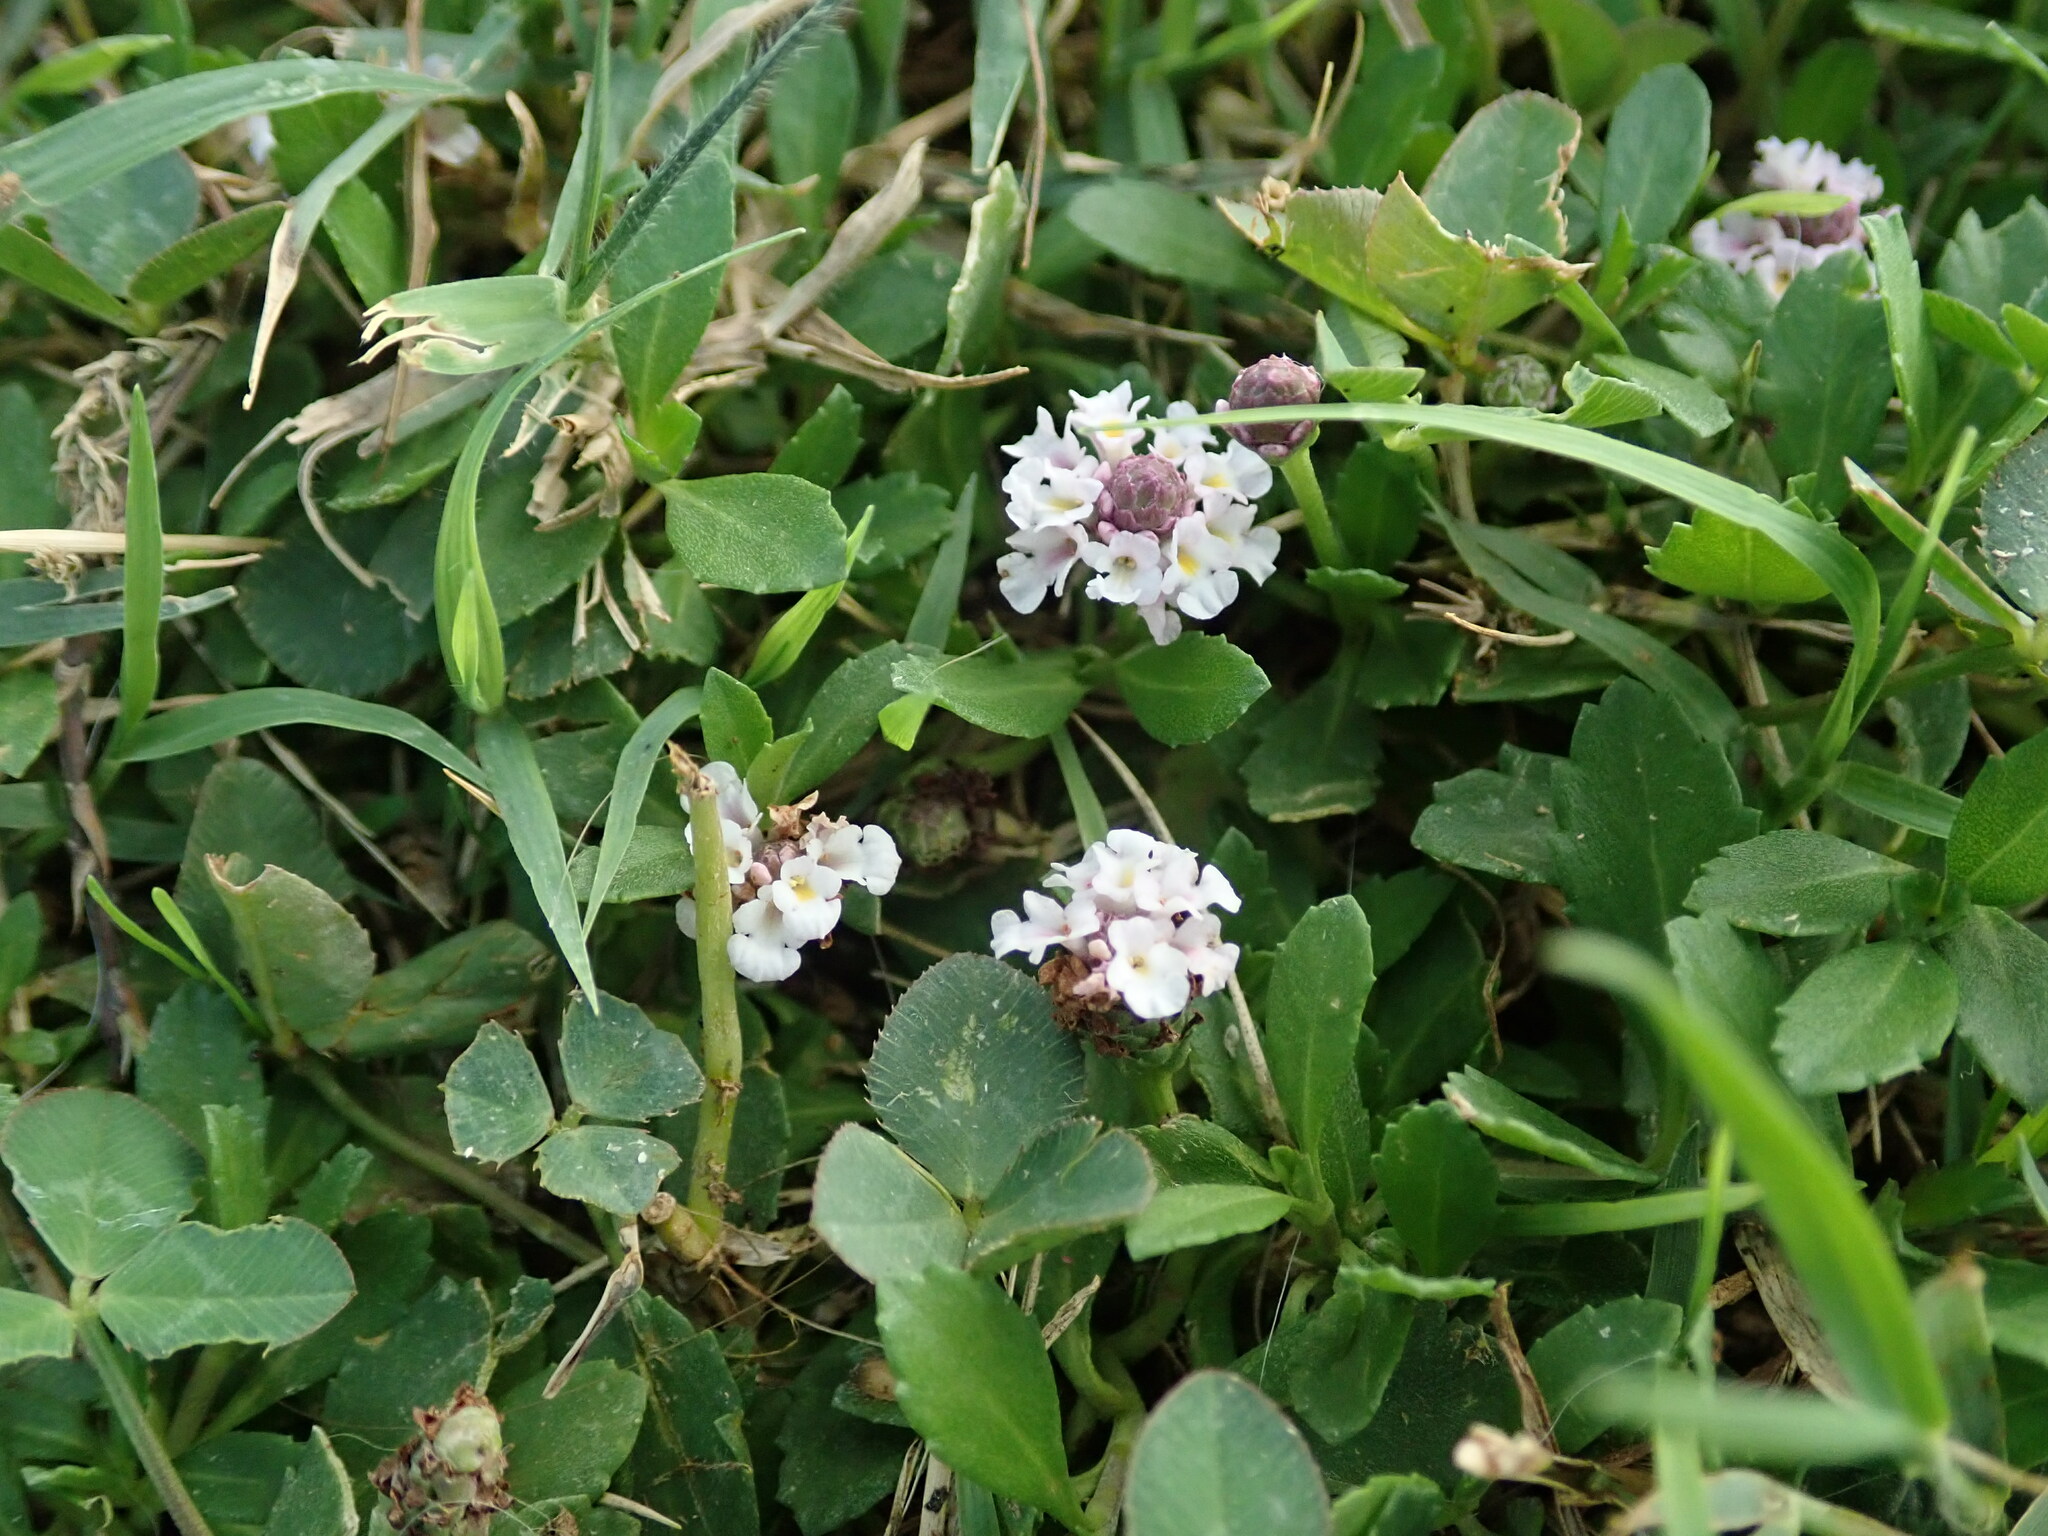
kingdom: Plantae
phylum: Tracheophyta
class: Magnoliopsida
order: Lamiales
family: Verbenaceae
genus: Phyla
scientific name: Phyla nodiflora
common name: Frogfruit
